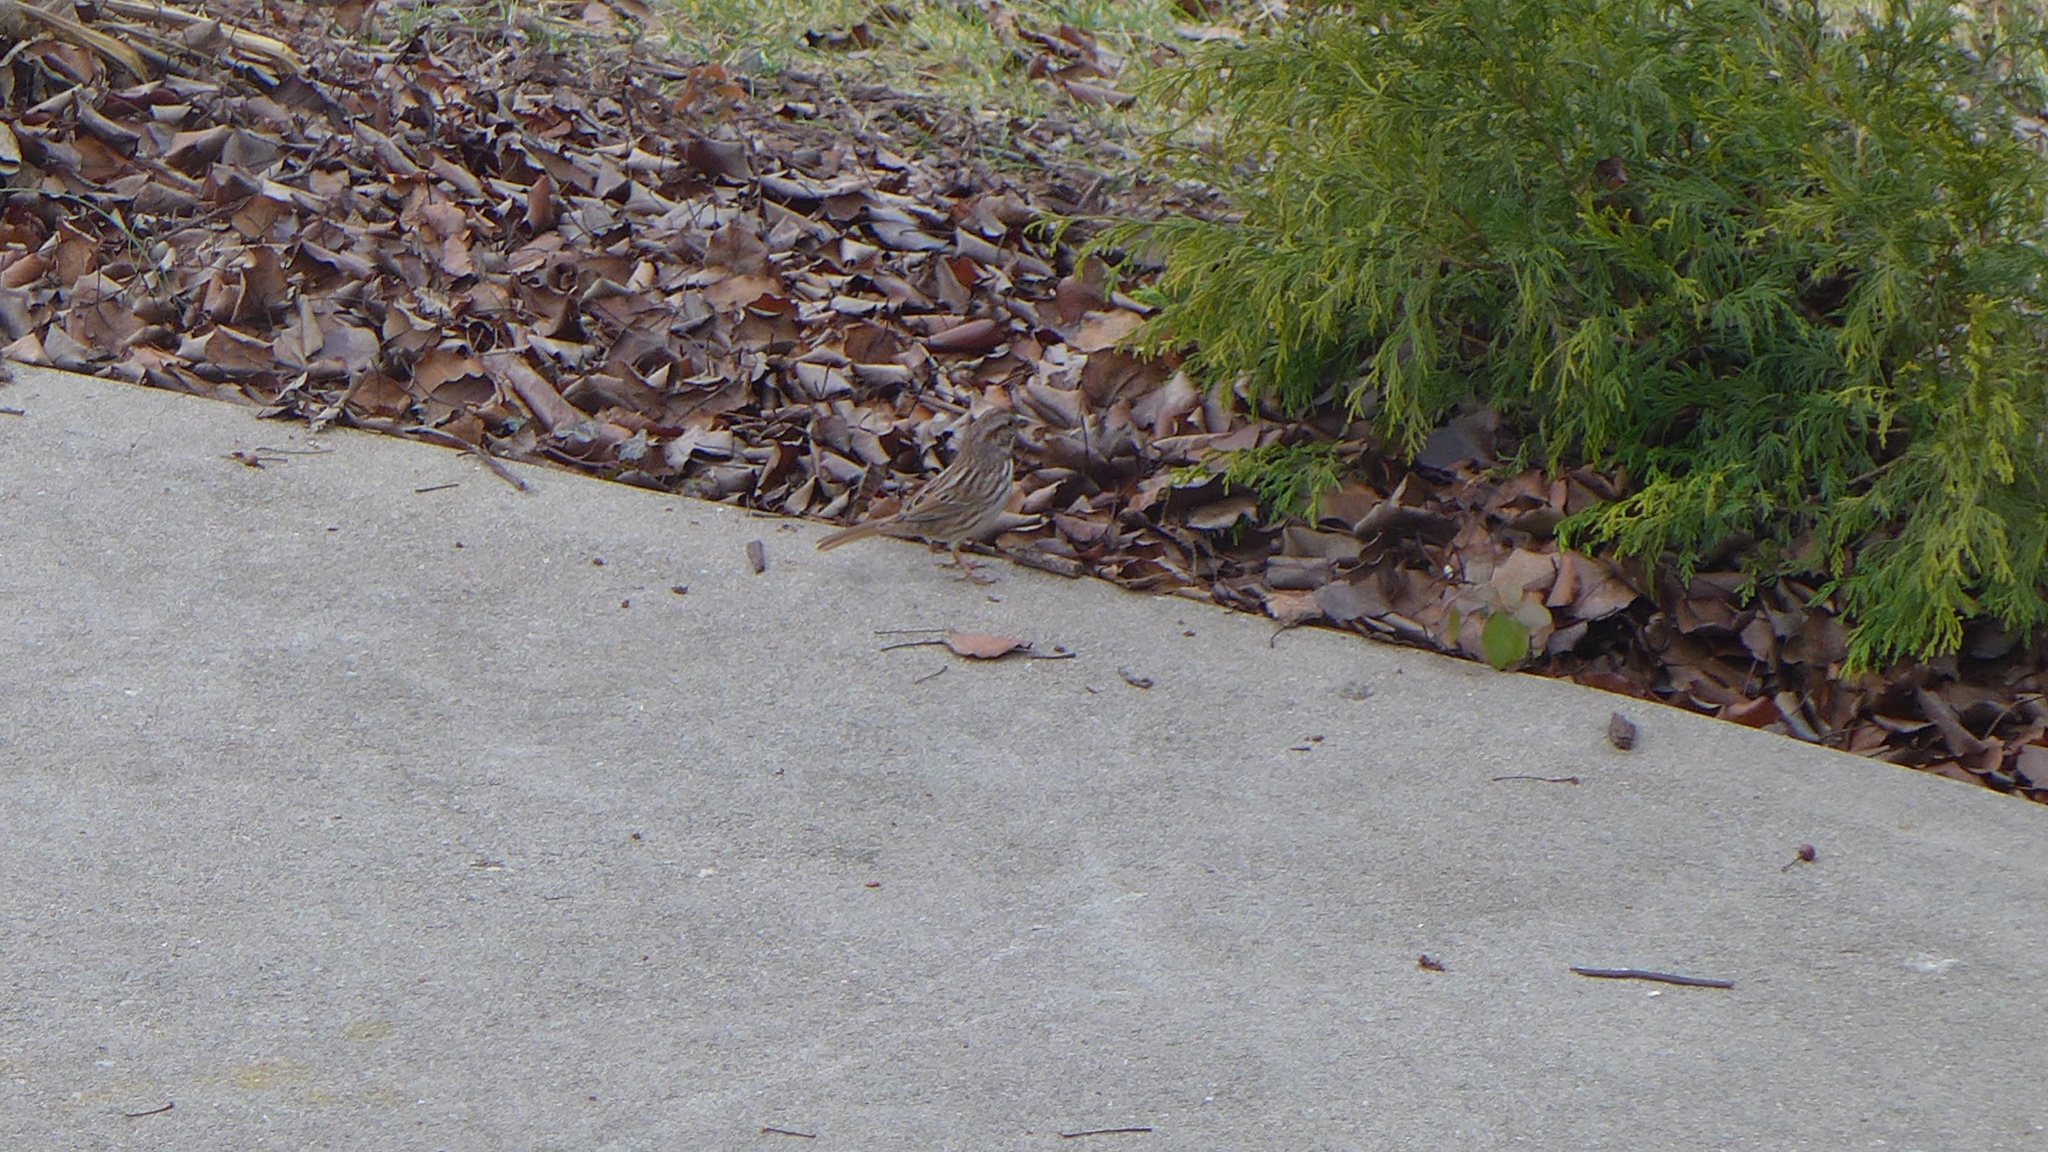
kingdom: Animalia
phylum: Chordata
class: Aves
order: Passeriformes
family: Passerellidae
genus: Melospiza
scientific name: Melospiza melodia
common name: Song sparrow
